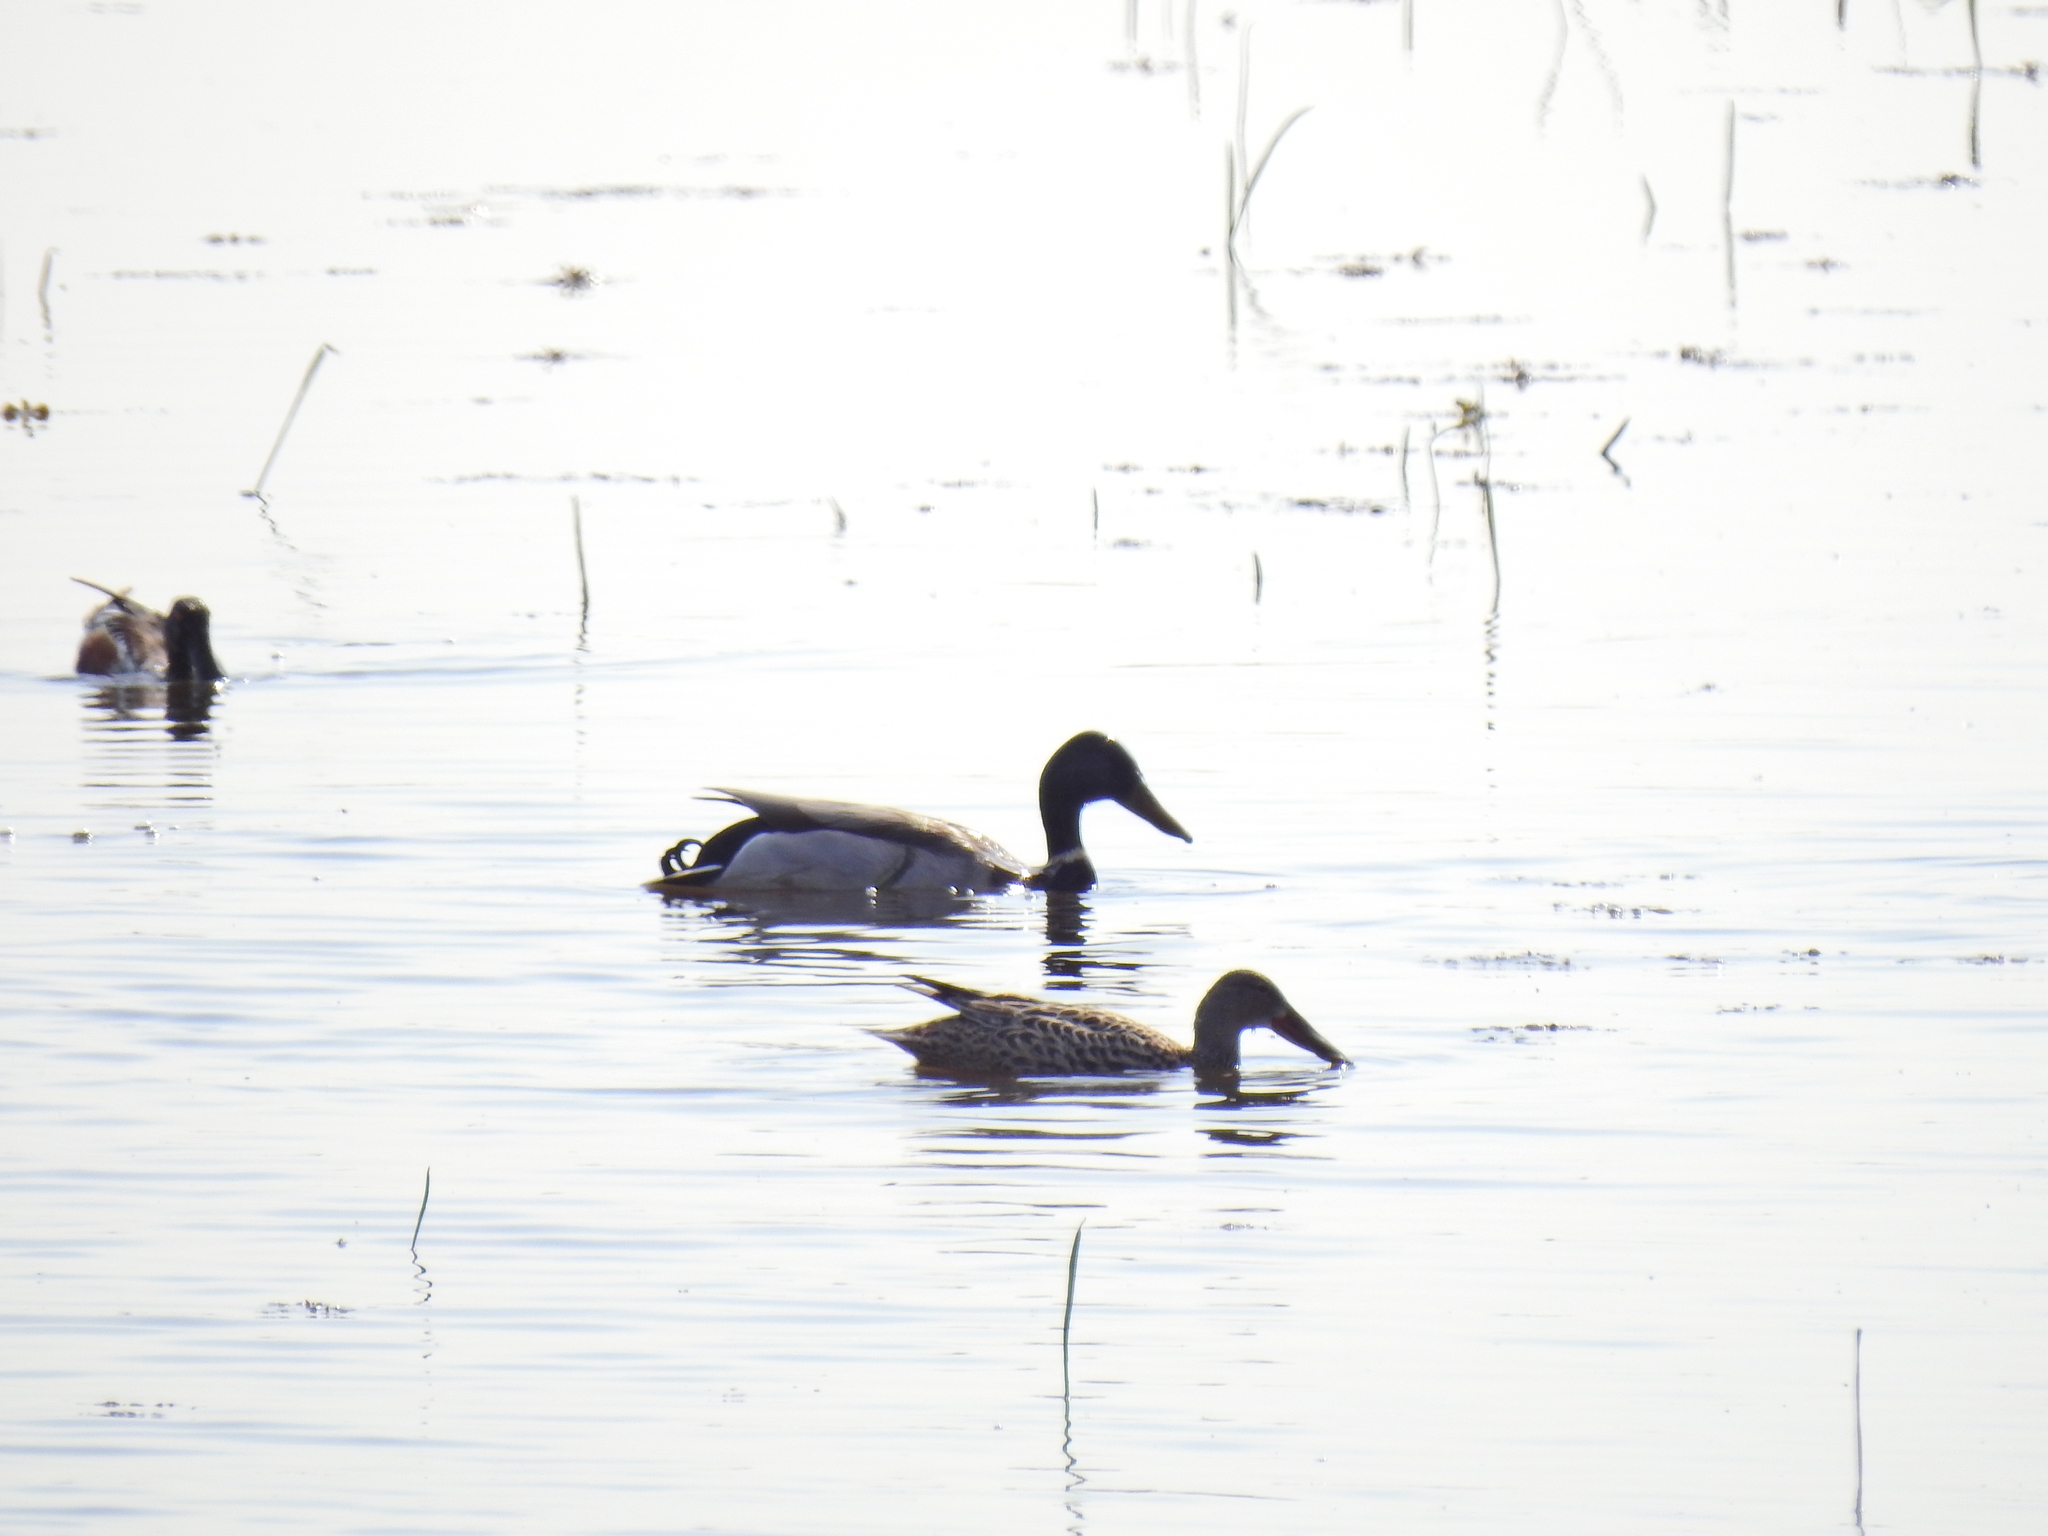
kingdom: Animalia
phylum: Chordata
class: Aves
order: Anseriformes
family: Anatidae
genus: Spatula
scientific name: Spatula clypeata
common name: Northern shoveler
